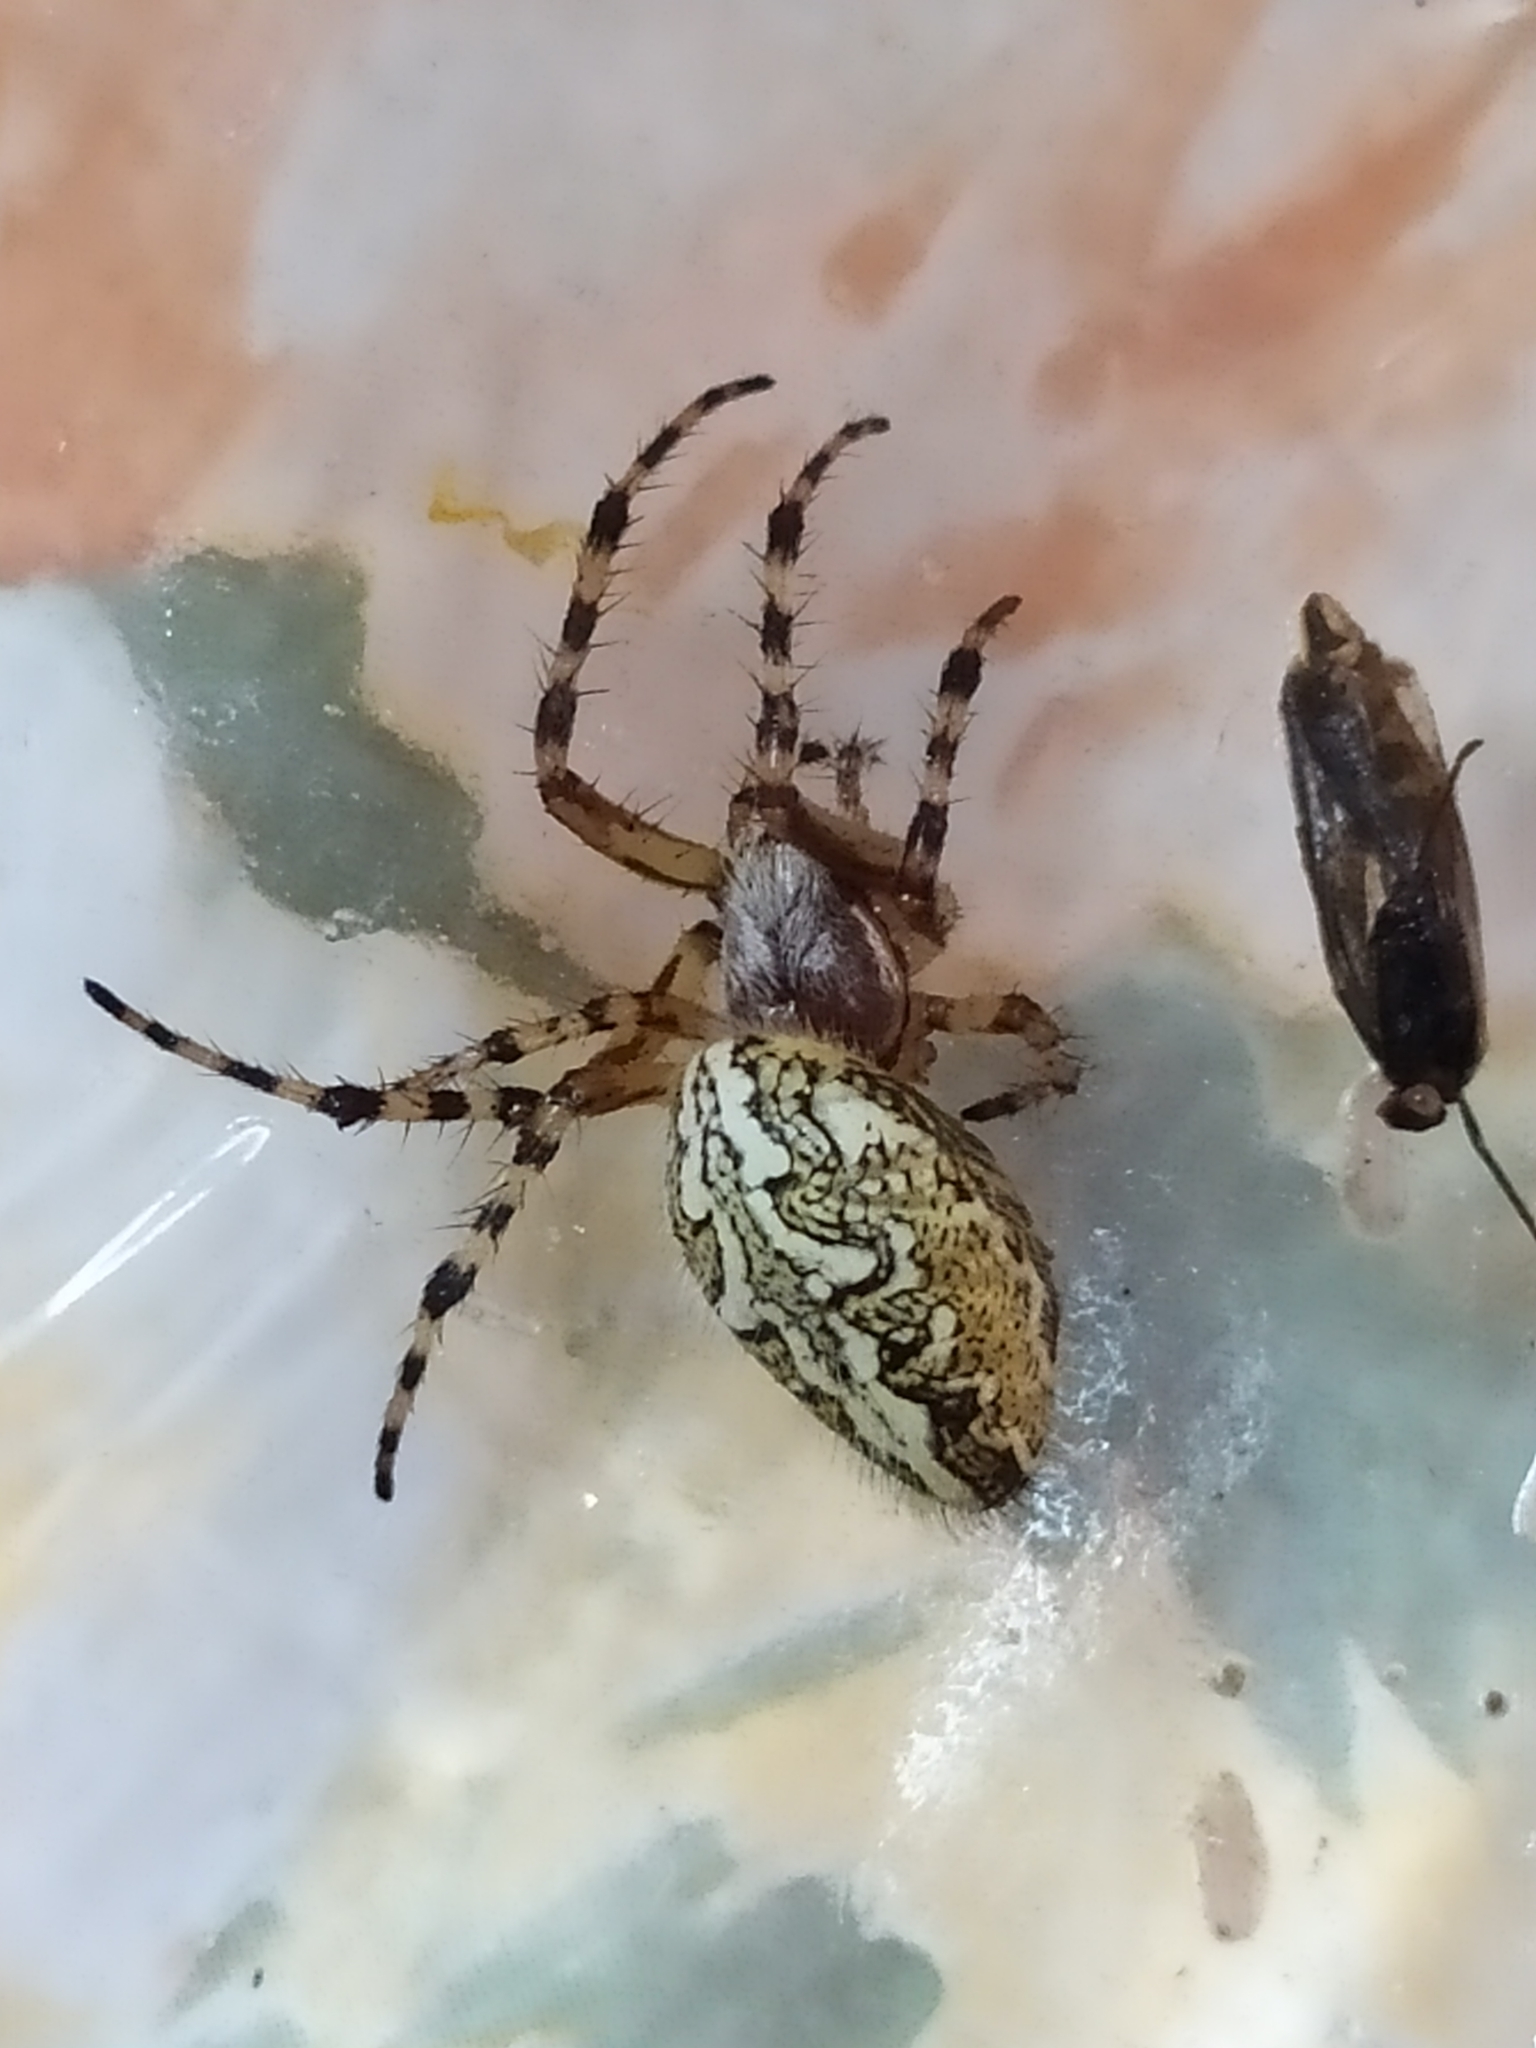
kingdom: Animalia
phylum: Arthropoda
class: Arachnida
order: Araneae
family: Araneidae
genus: Aculepeira
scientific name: Aculepeira ceropegia
